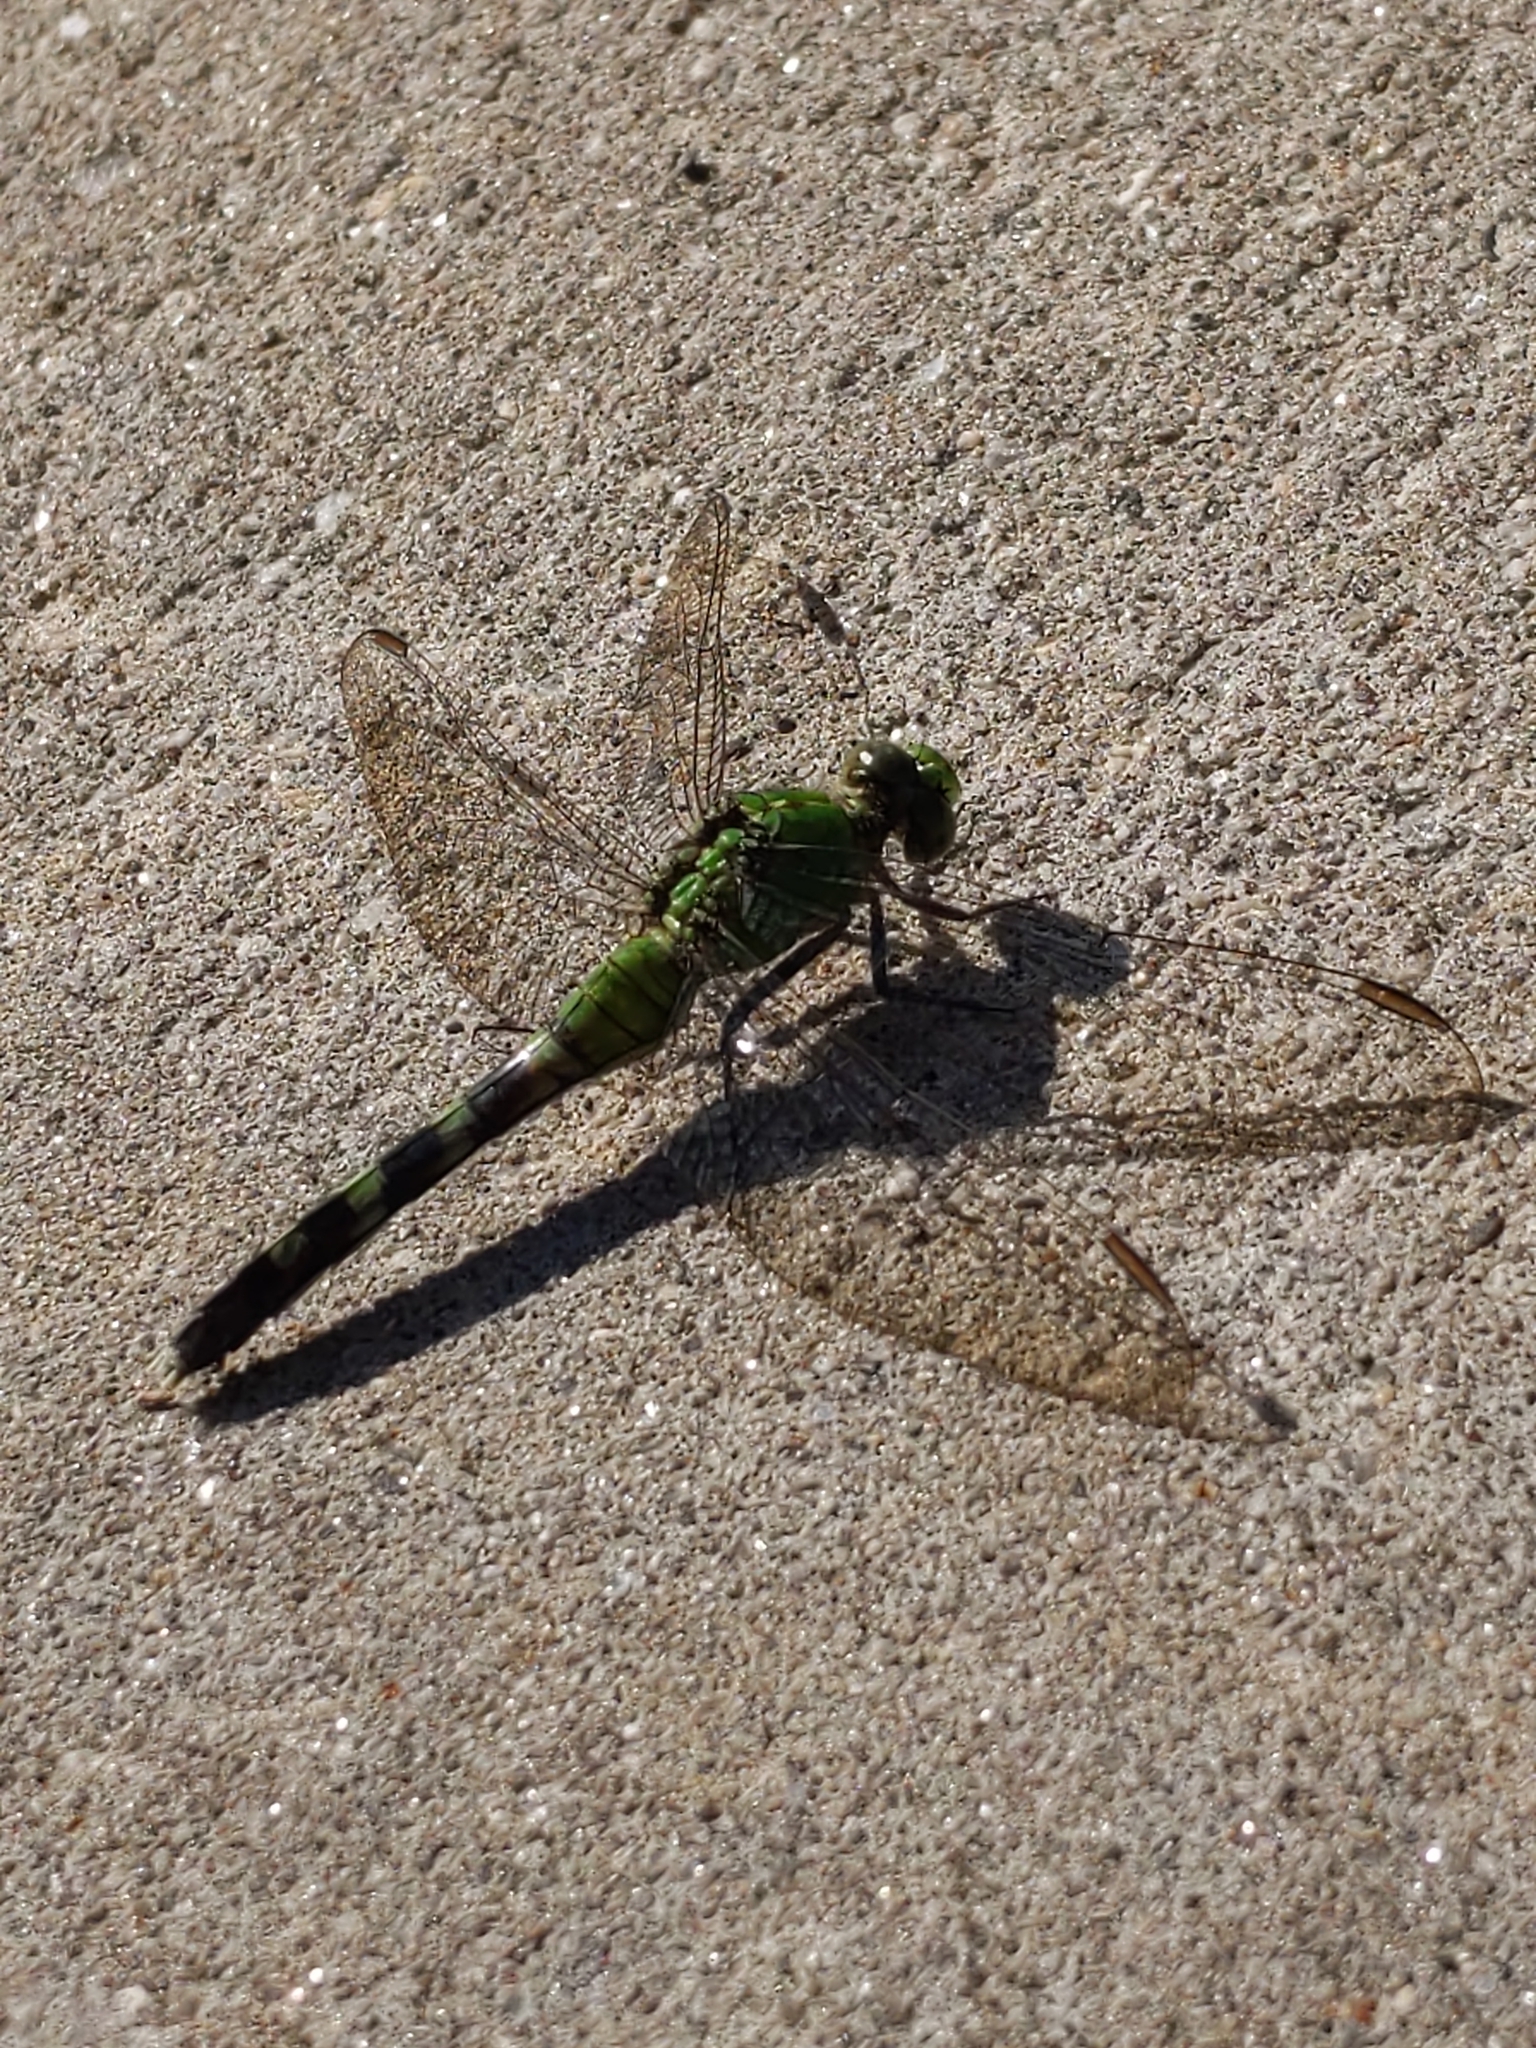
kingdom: Animalia
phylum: Arthropoda
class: Insecta
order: Odonata
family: Libellulidae
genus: Erythemis
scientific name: Erythemis simplicicollis
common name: Eastern pondhawk
